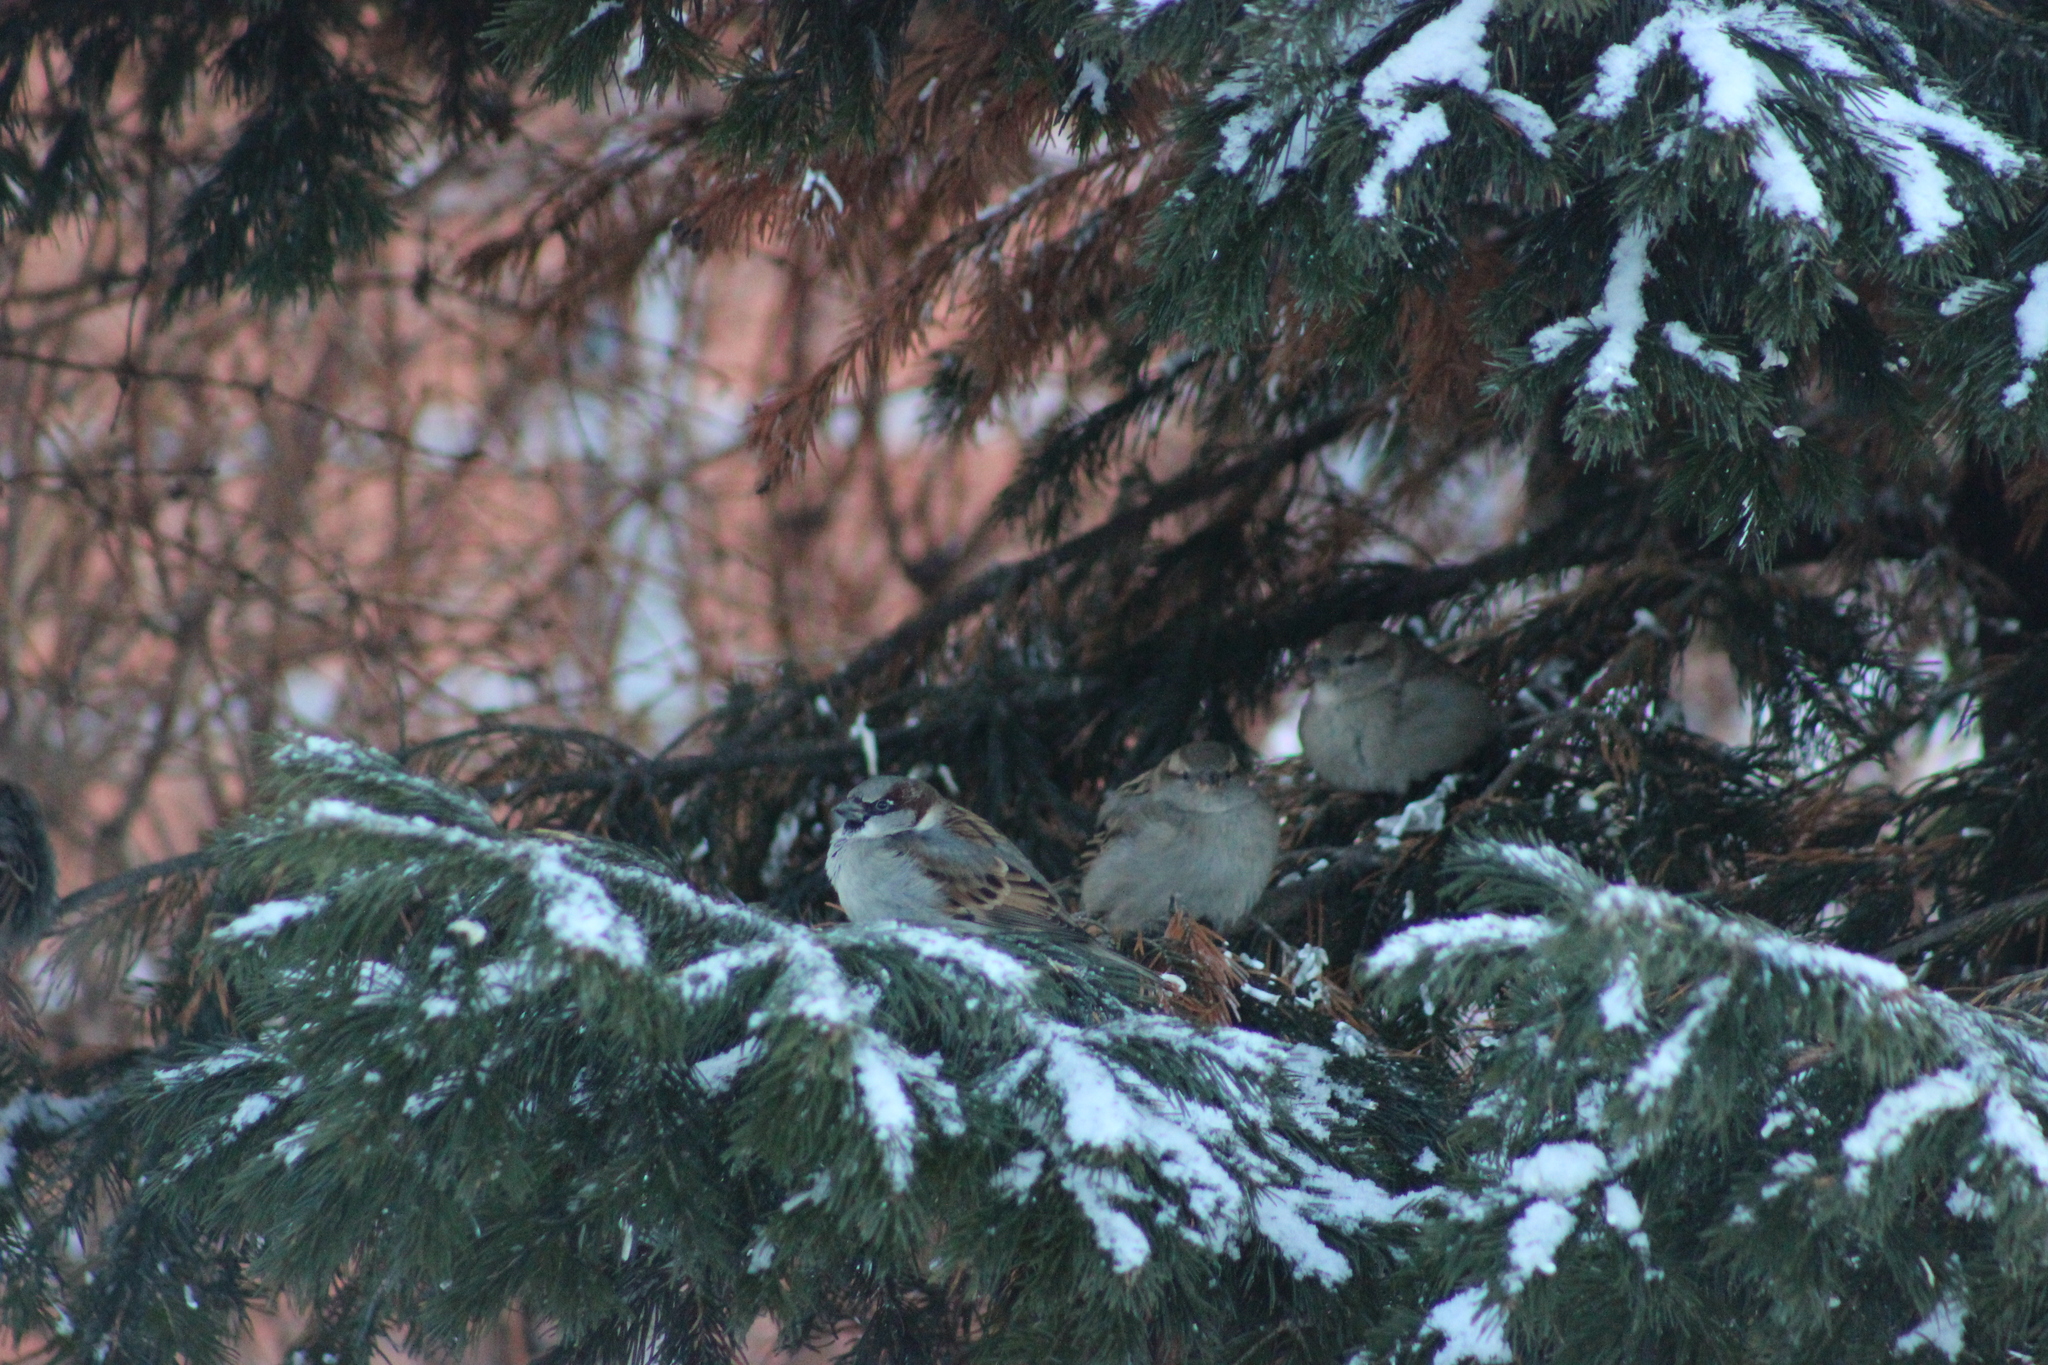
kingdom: Animalia
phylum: Chordata
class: Aves
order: Passeriformes
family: Passeridae
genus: Passer
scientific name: Passer domesticus
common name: House sparrow
